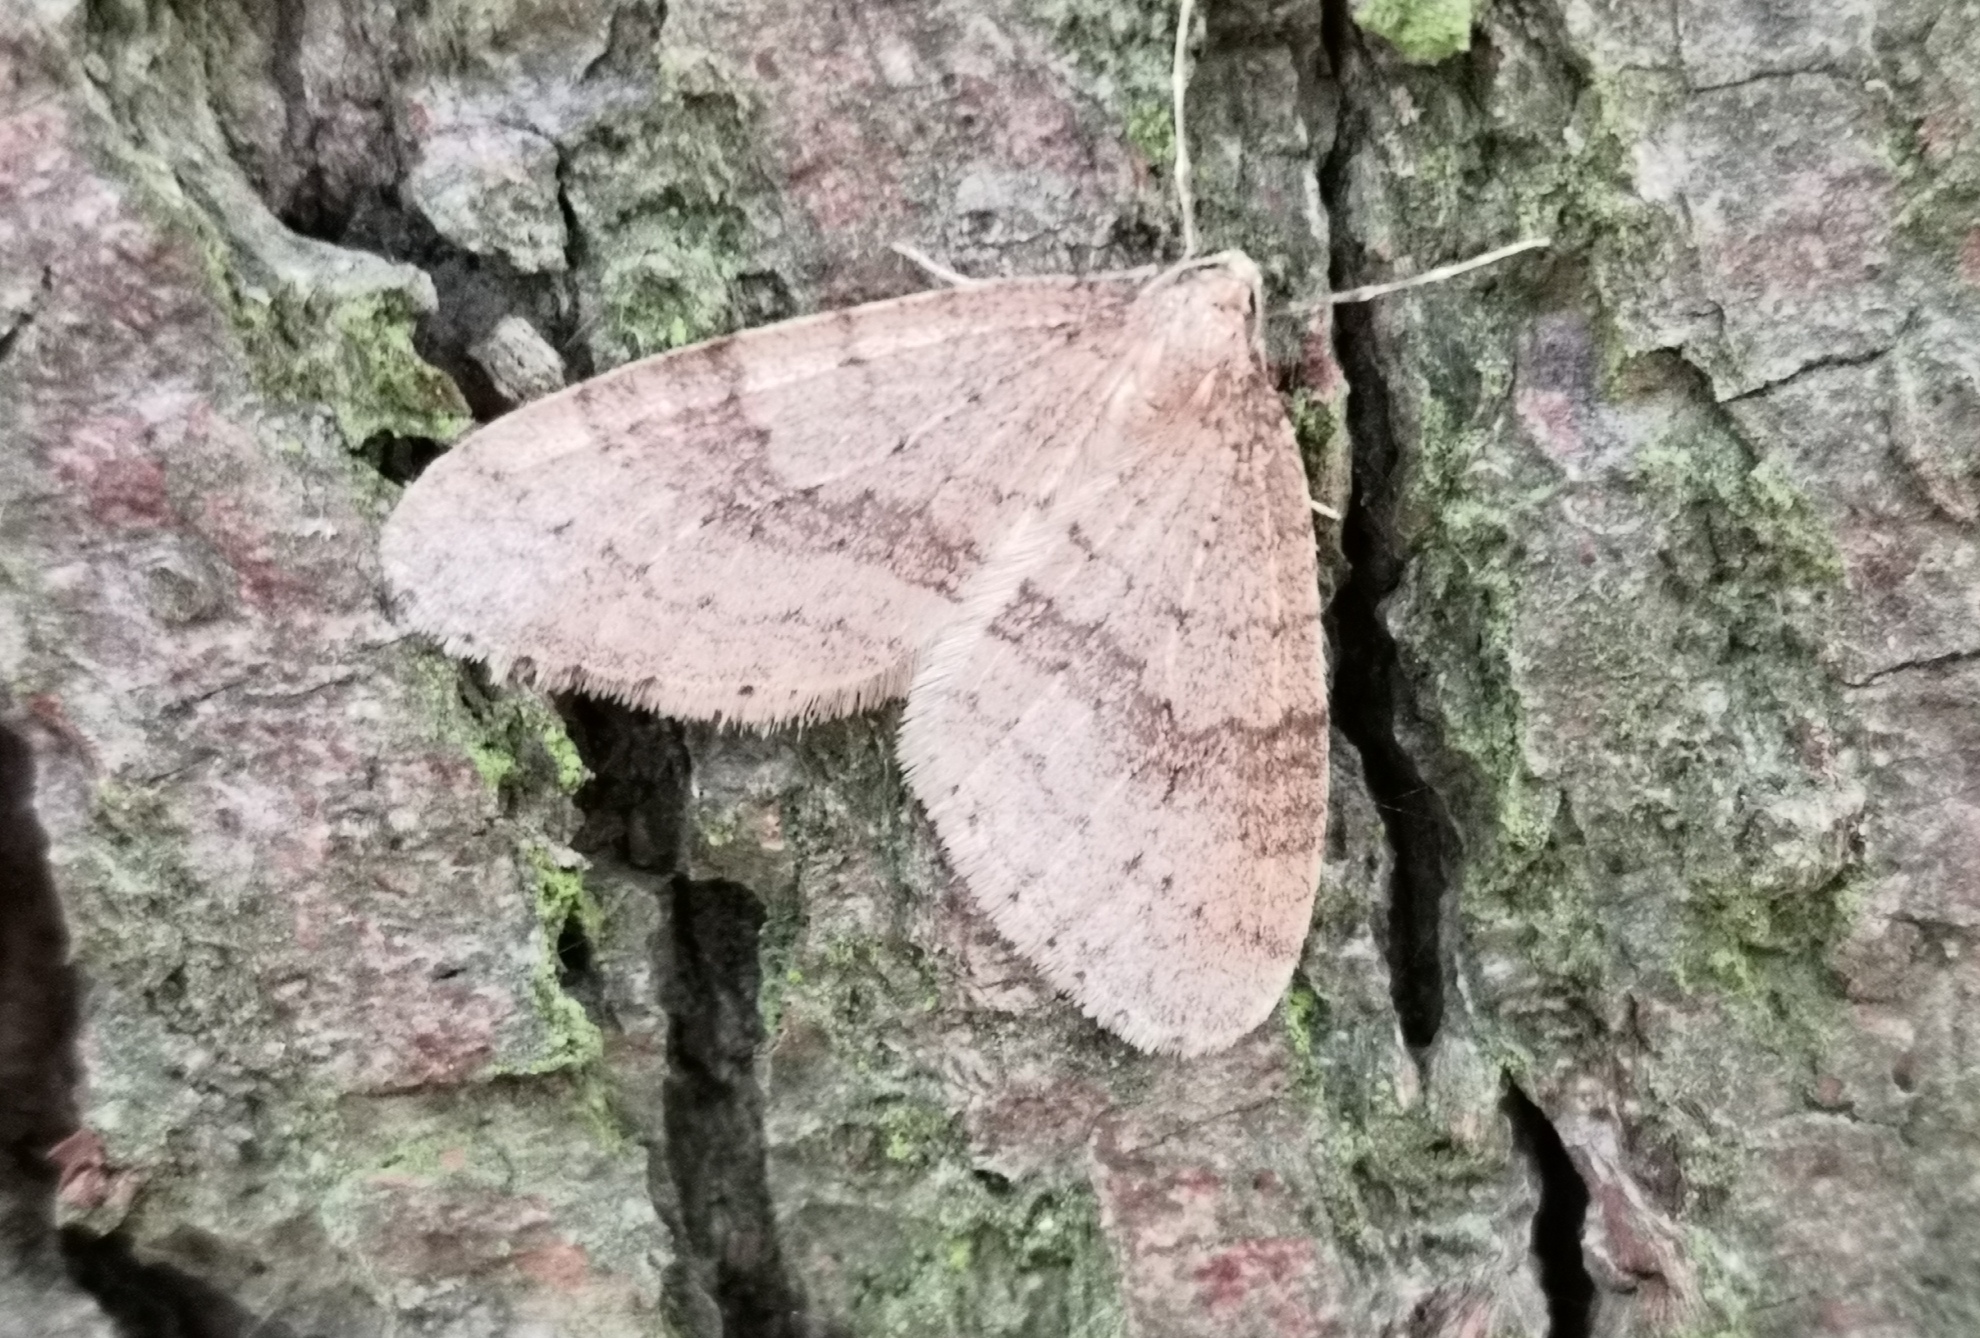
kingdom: Animalia
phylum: Arthropoda
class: Insecta
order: Lepidoptera
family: Geometridae
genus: Operophtera
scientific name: Operophtera brumata
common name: Winter moth
